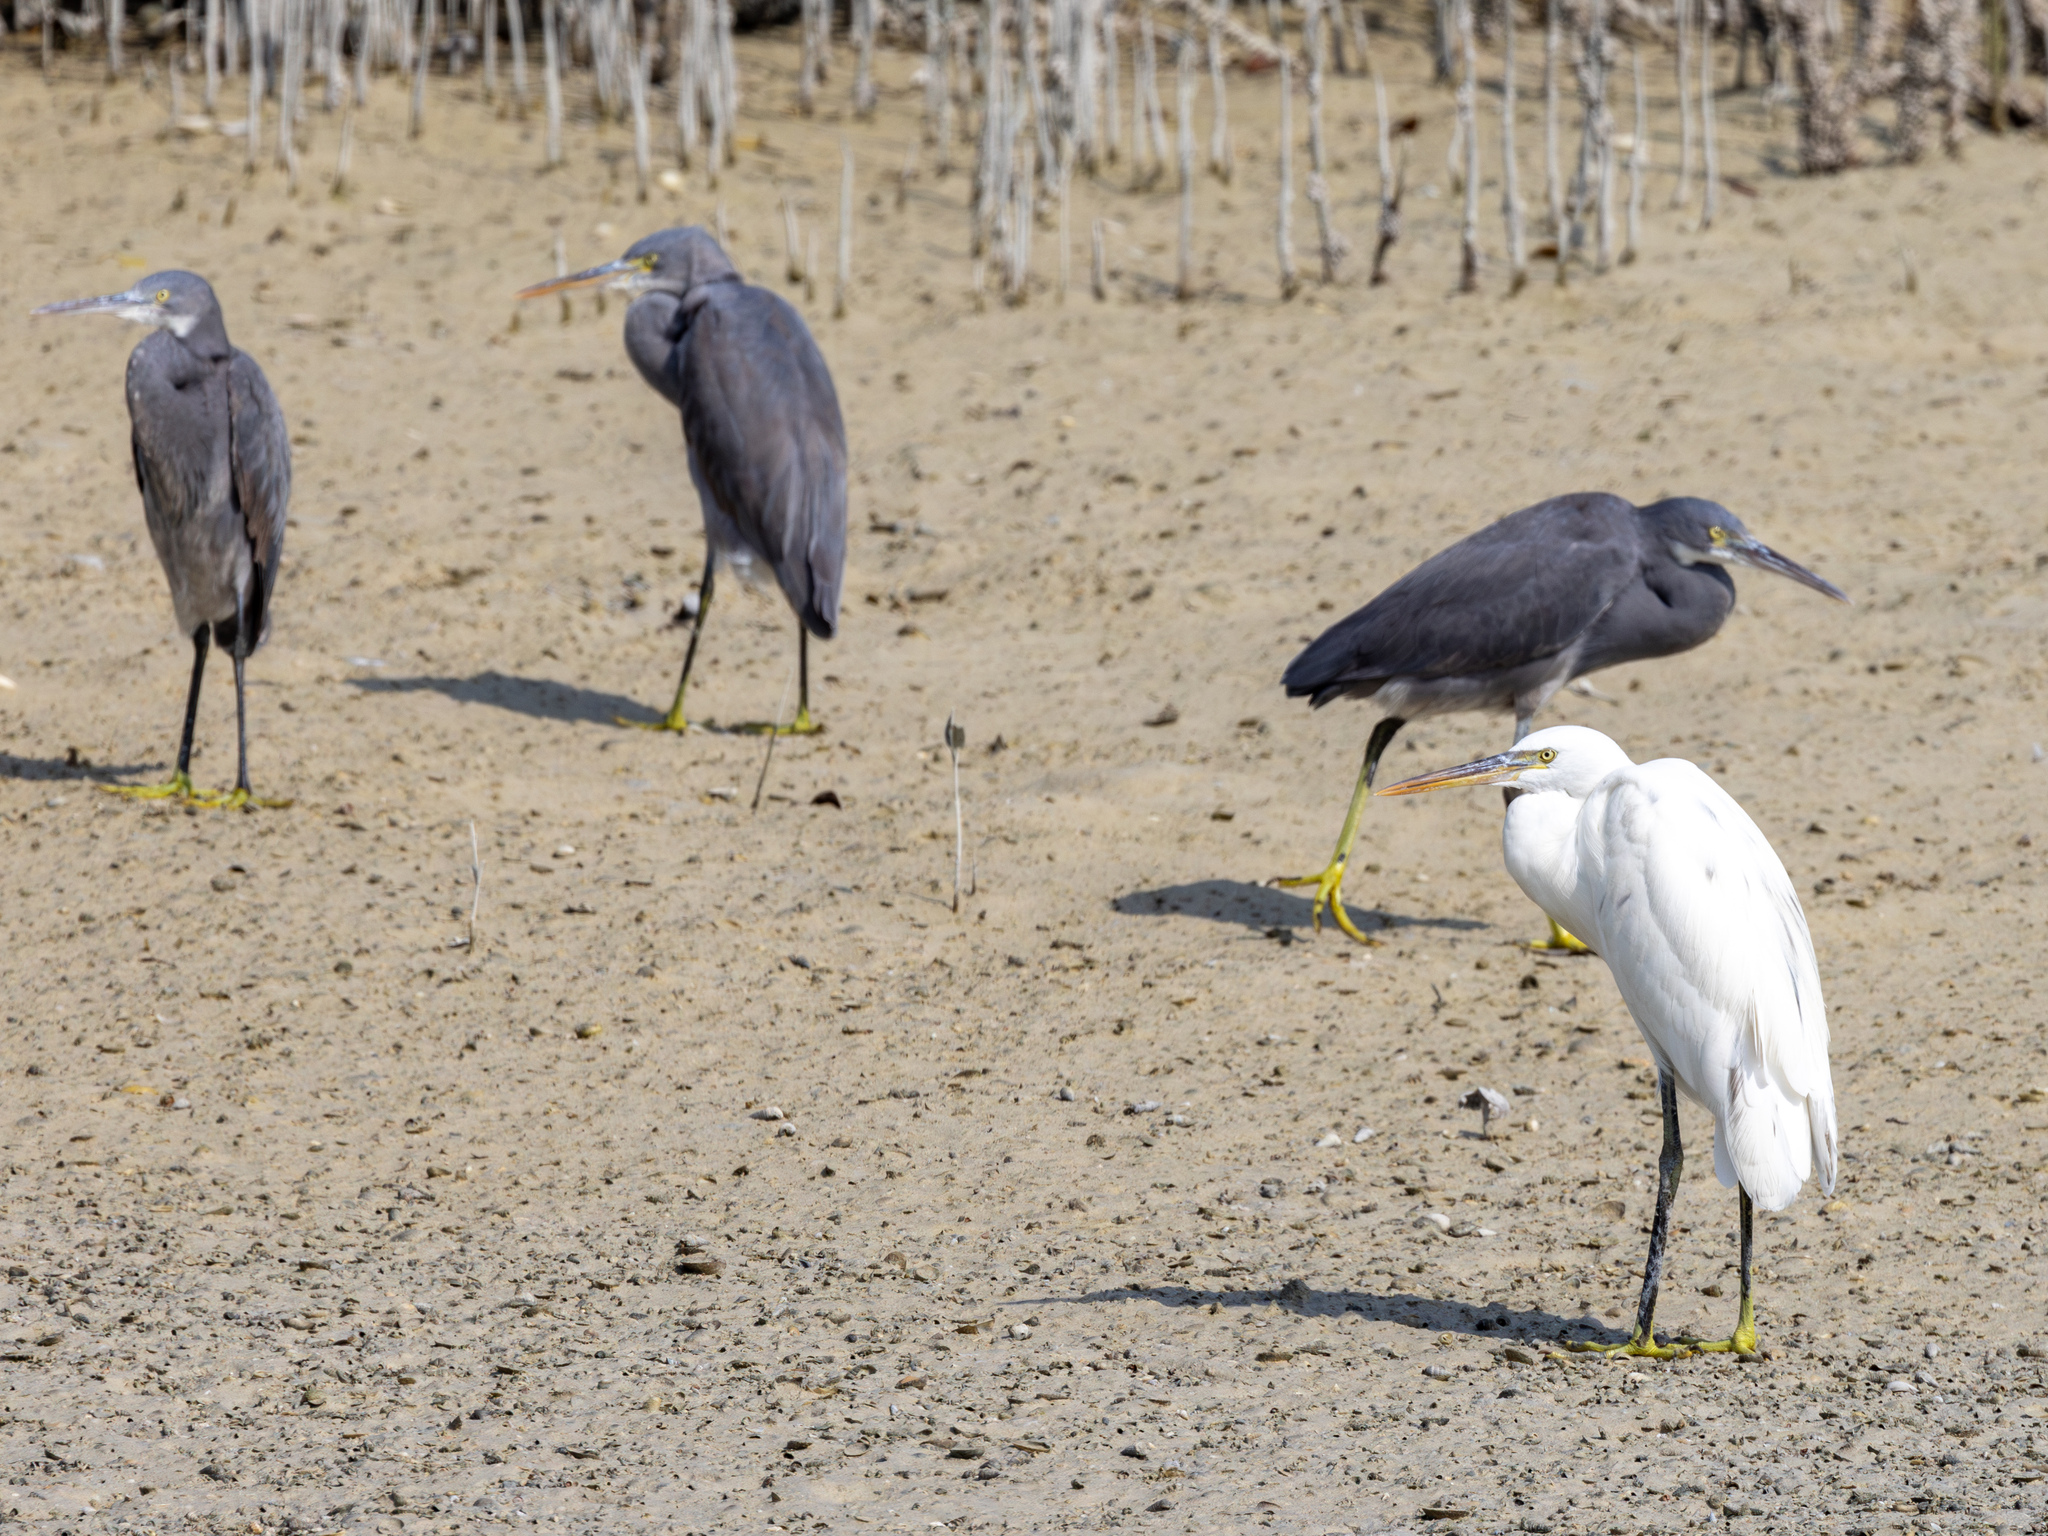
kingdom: Animalia
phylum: Chordata
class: Aves
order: Pelecaniformes
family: Ardeidae
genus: Egretta
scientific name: Egretta gularis
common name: Western reef-heron
